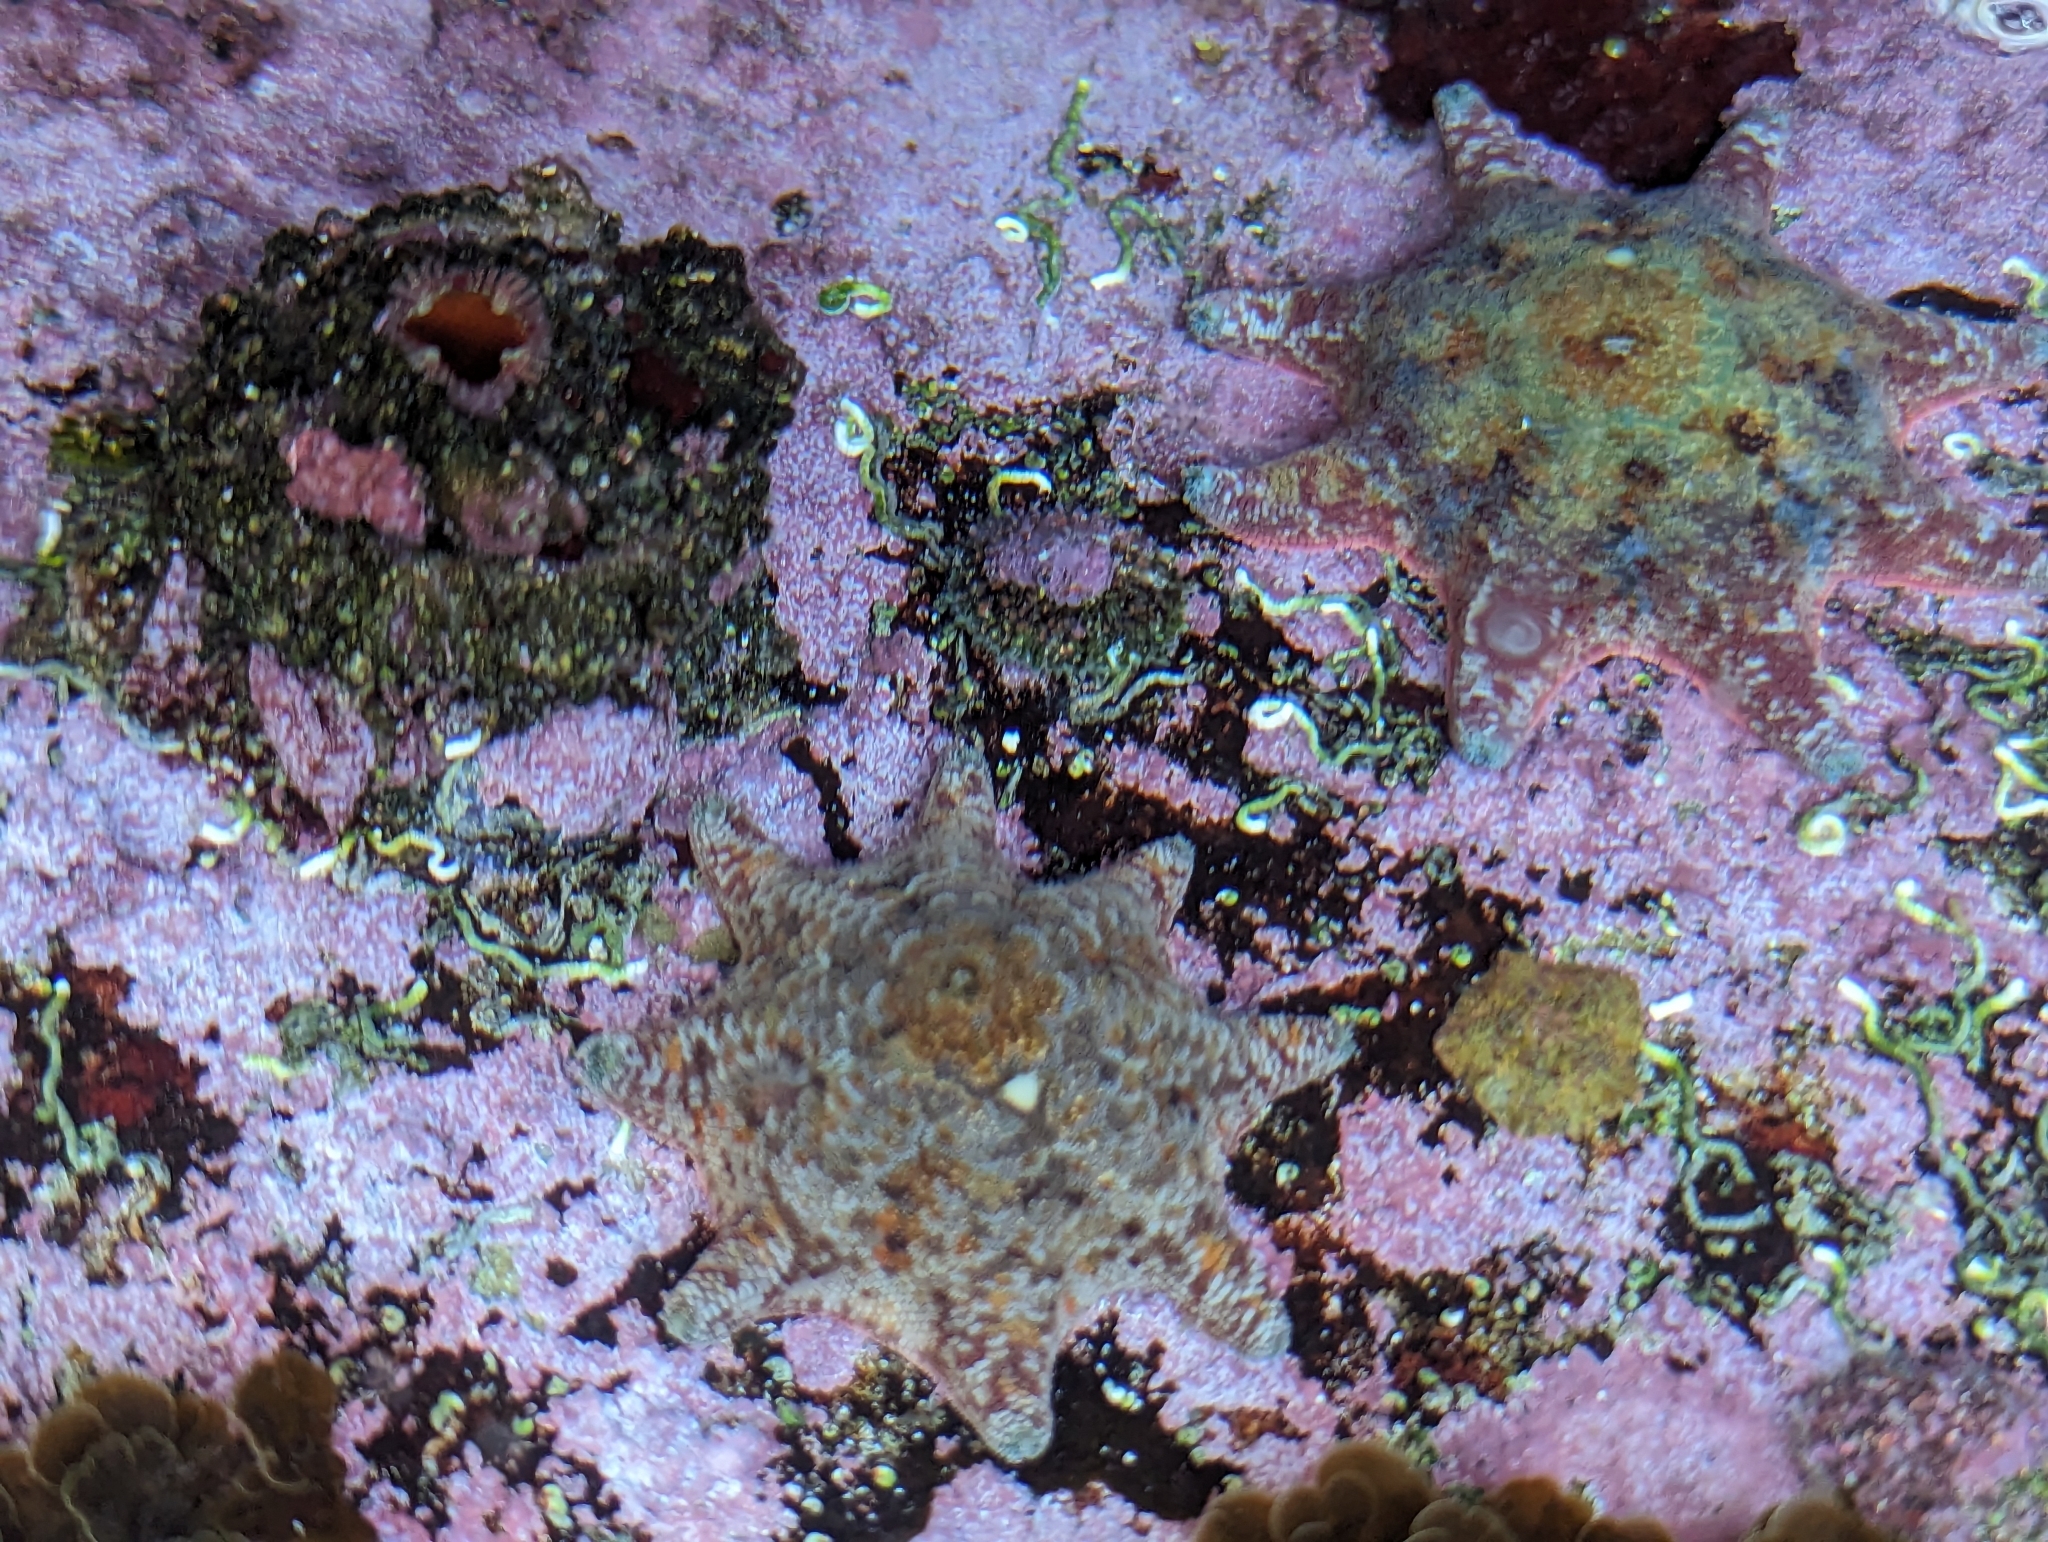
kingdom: Animalia
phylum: Echinodermata
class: Asteroidea
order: Valvatida
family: Asterinidae
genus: Meridiastra
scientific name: Meridiastra calcar
